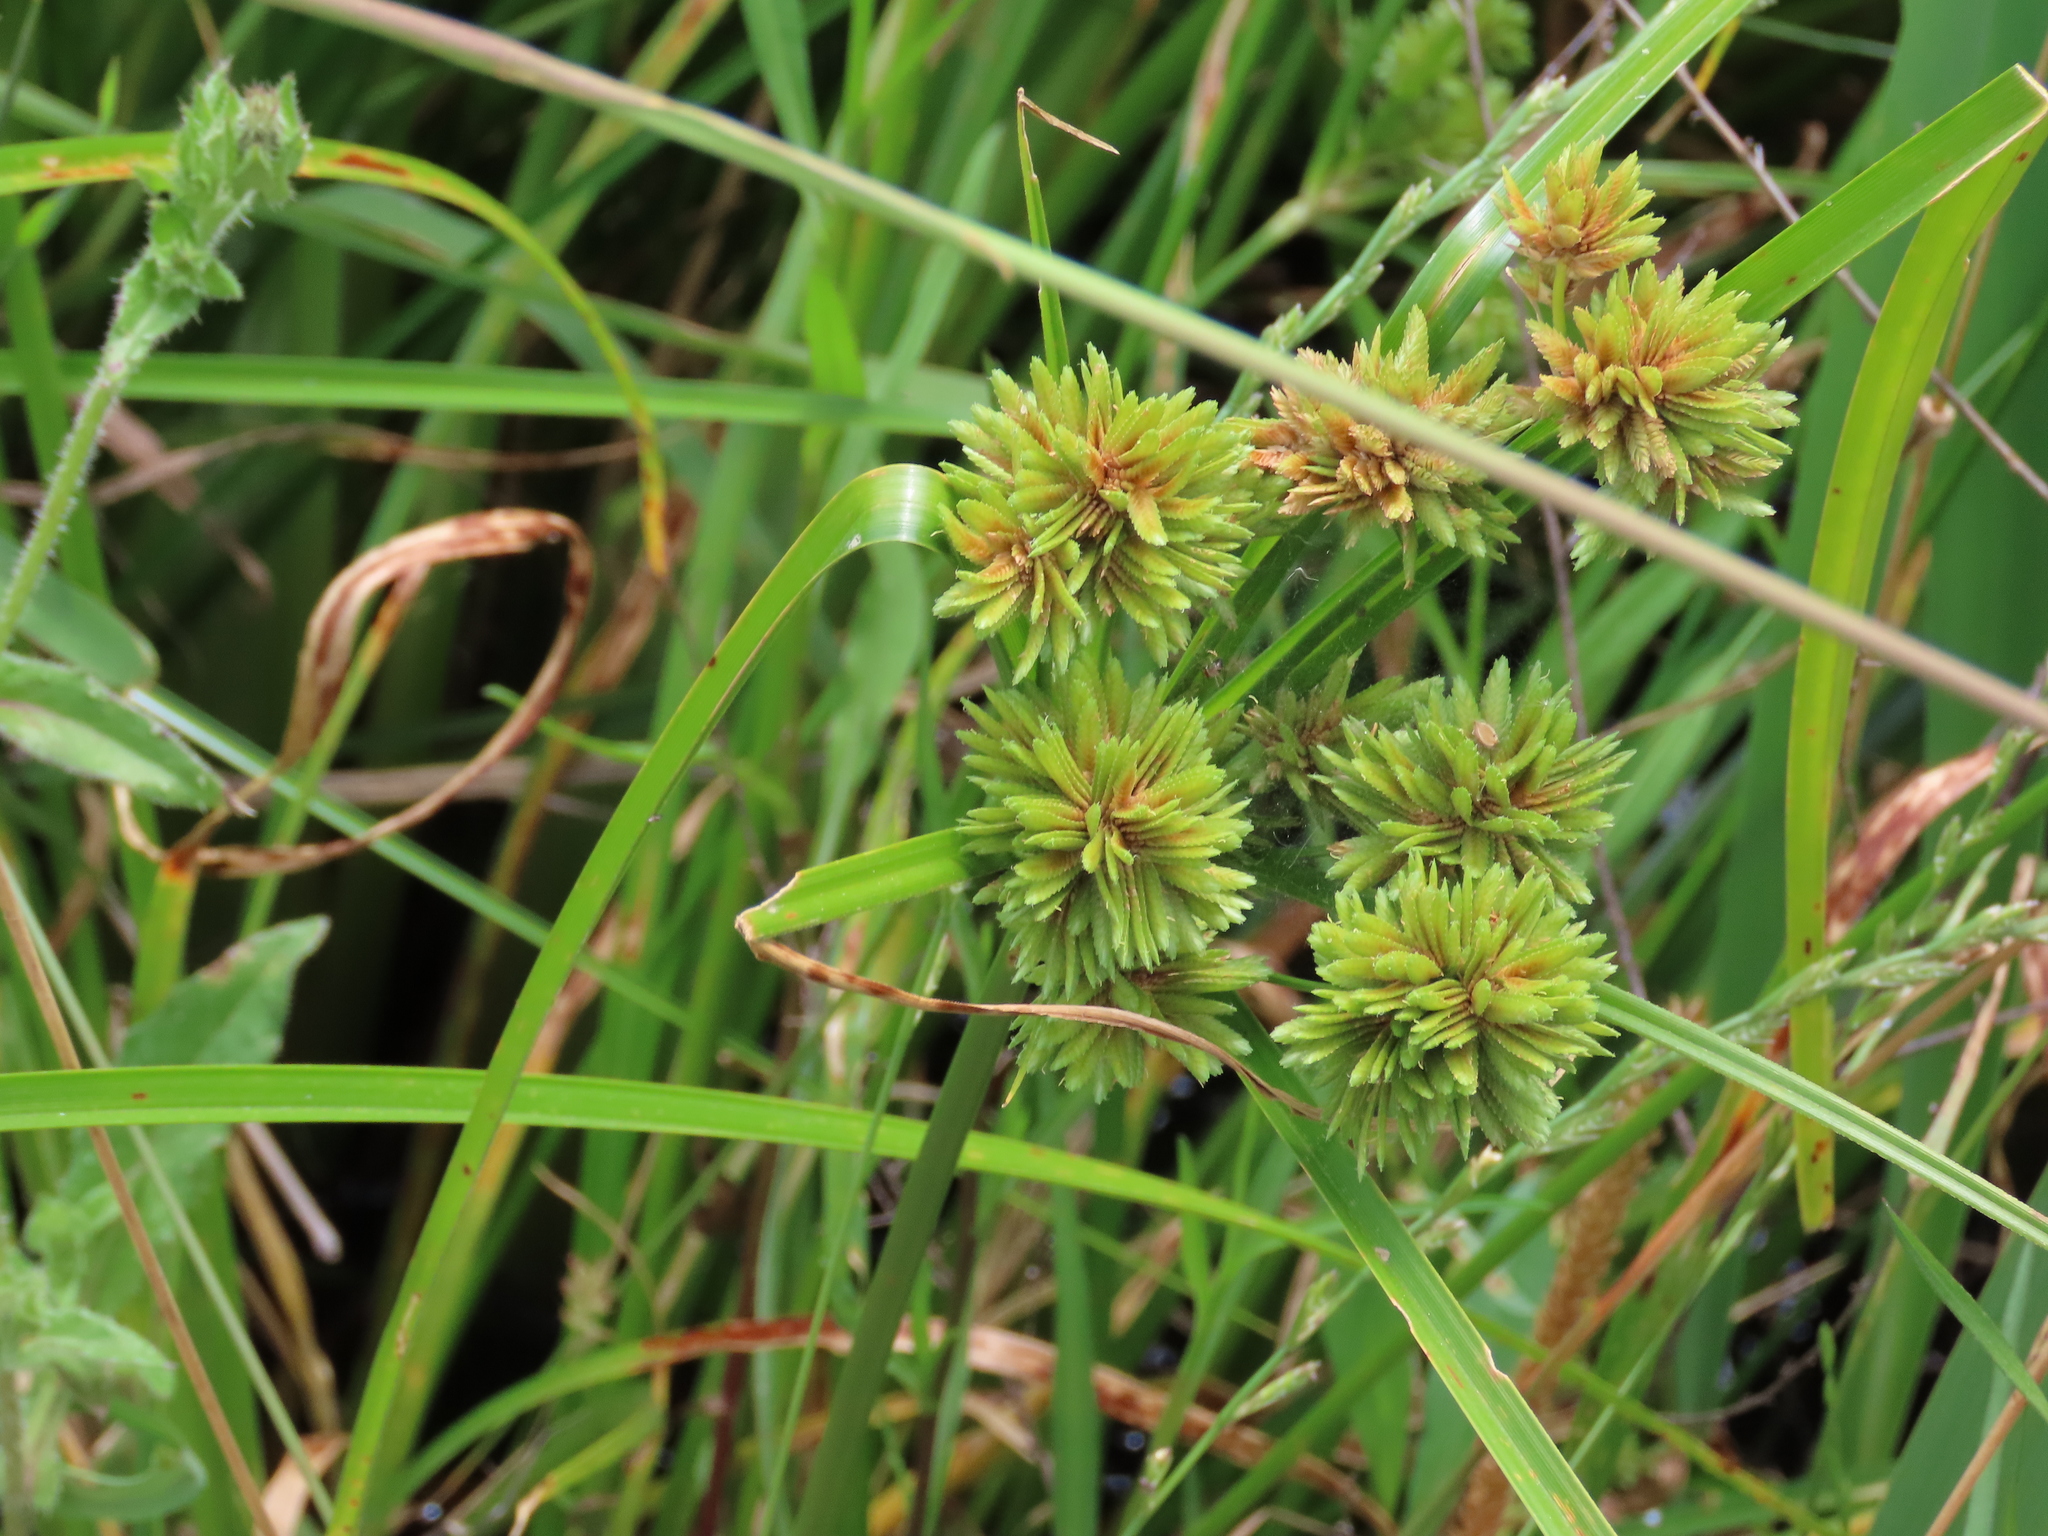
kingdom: Plantae
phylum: Tracheophyta
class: Liliopsida
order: Poales
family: Cyperaceae
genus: Cyperus
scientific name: Cyperus eragrostis
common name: Tall flatsedge
